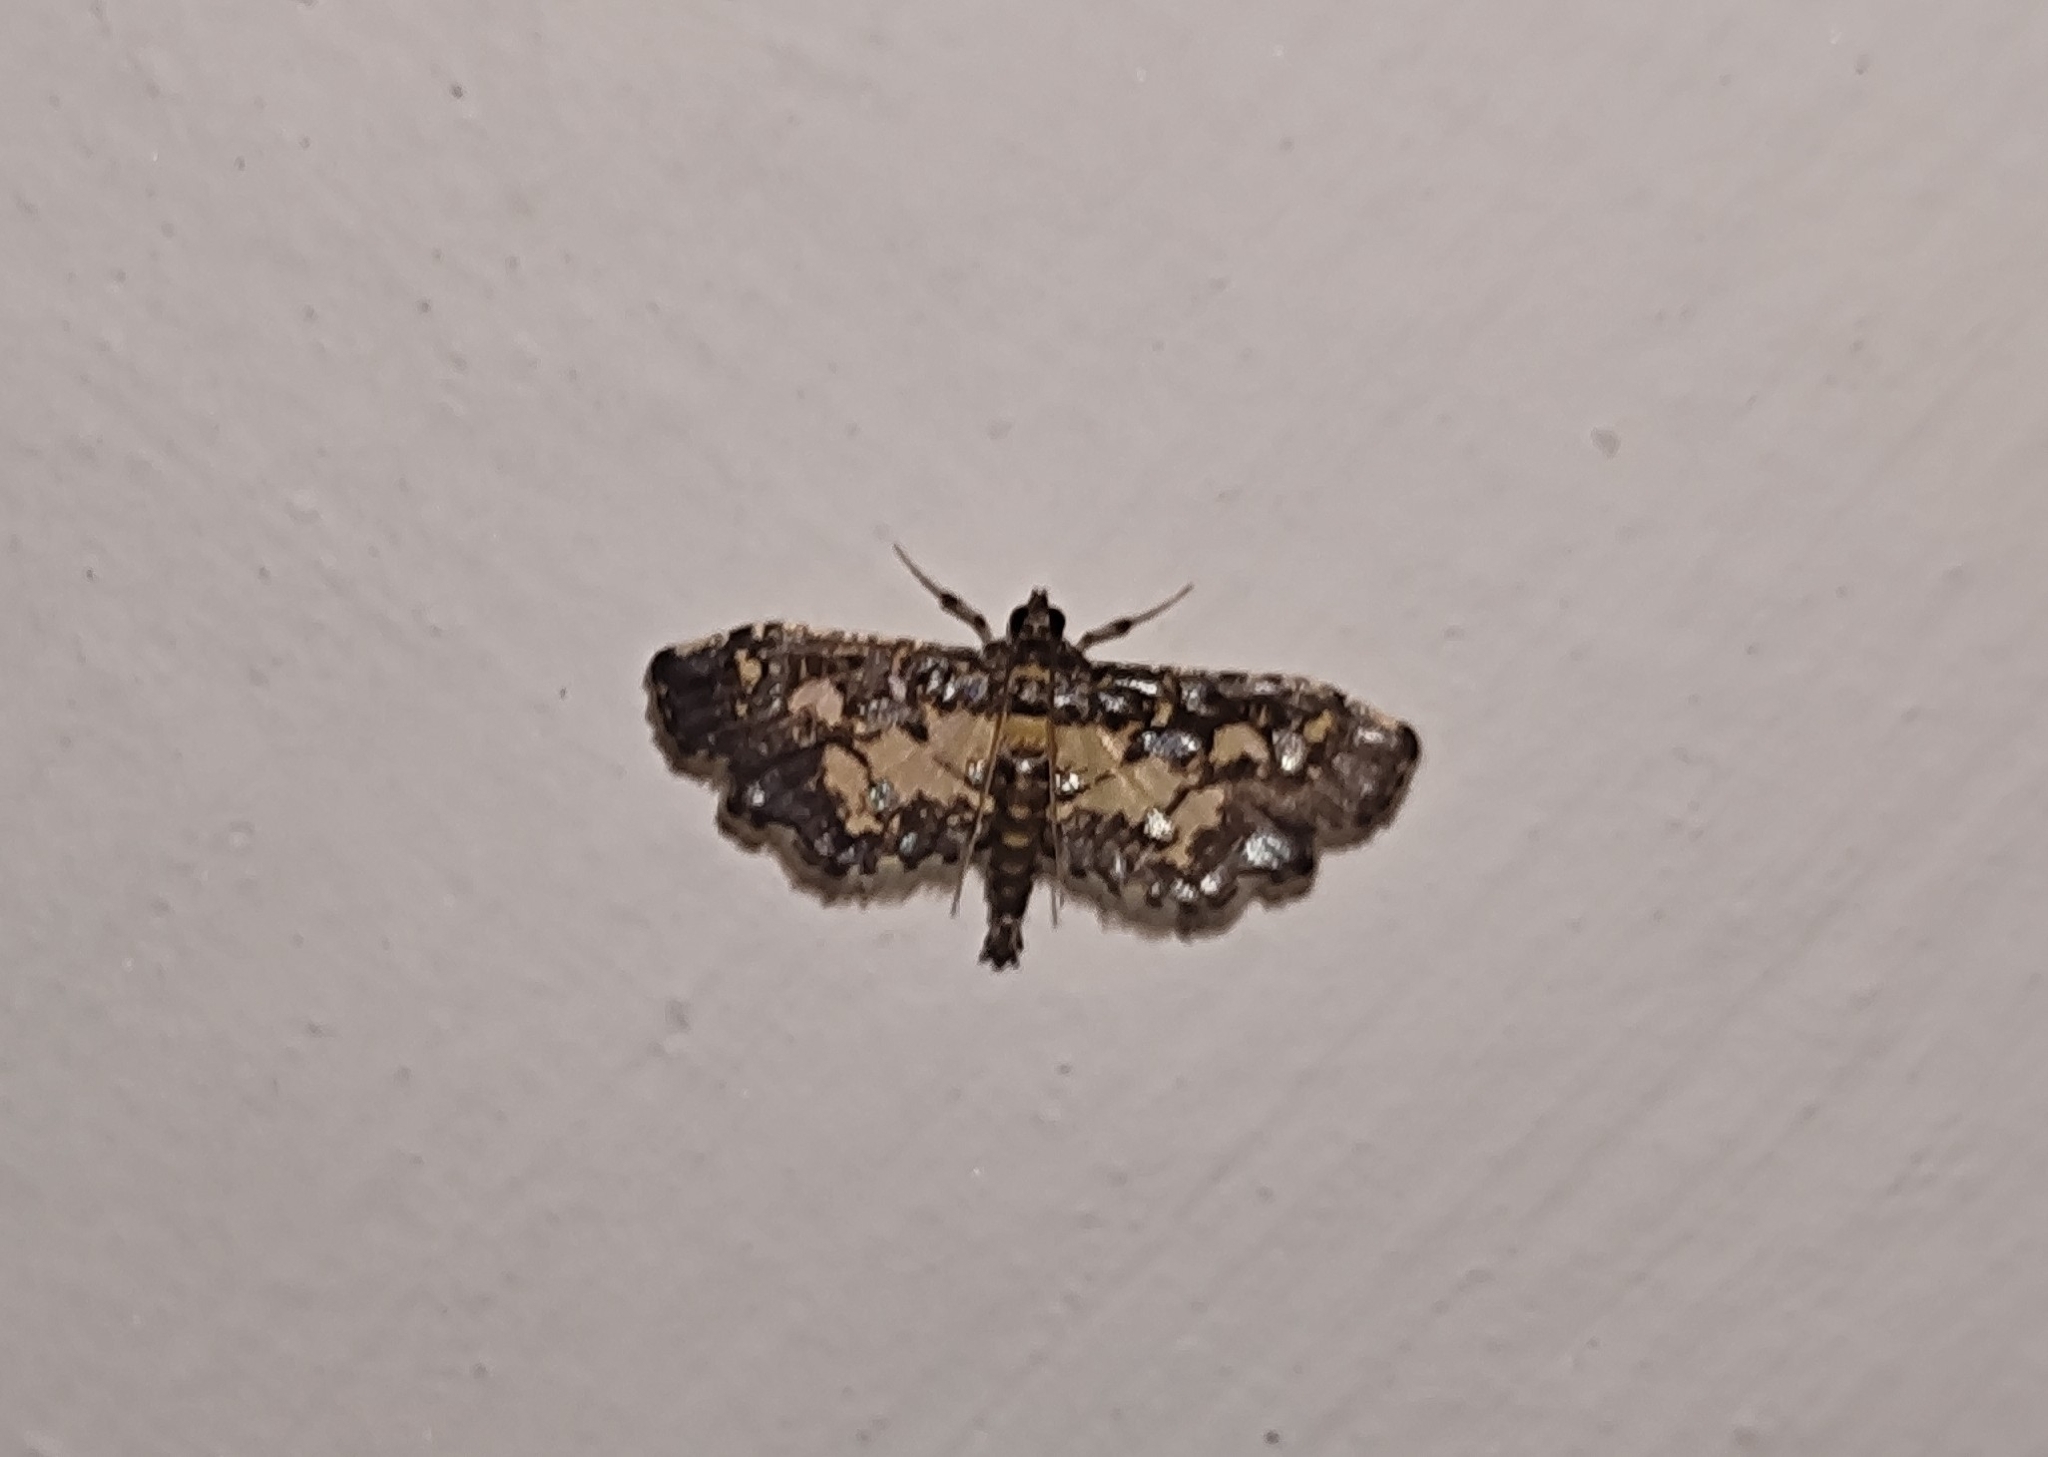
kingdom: Animalia
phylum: Arthropoda
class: Insecta
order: Lepidoptera
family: Crambidae
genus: Eurrhyparodes
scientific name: Eurrhyparodes bracteolalis
